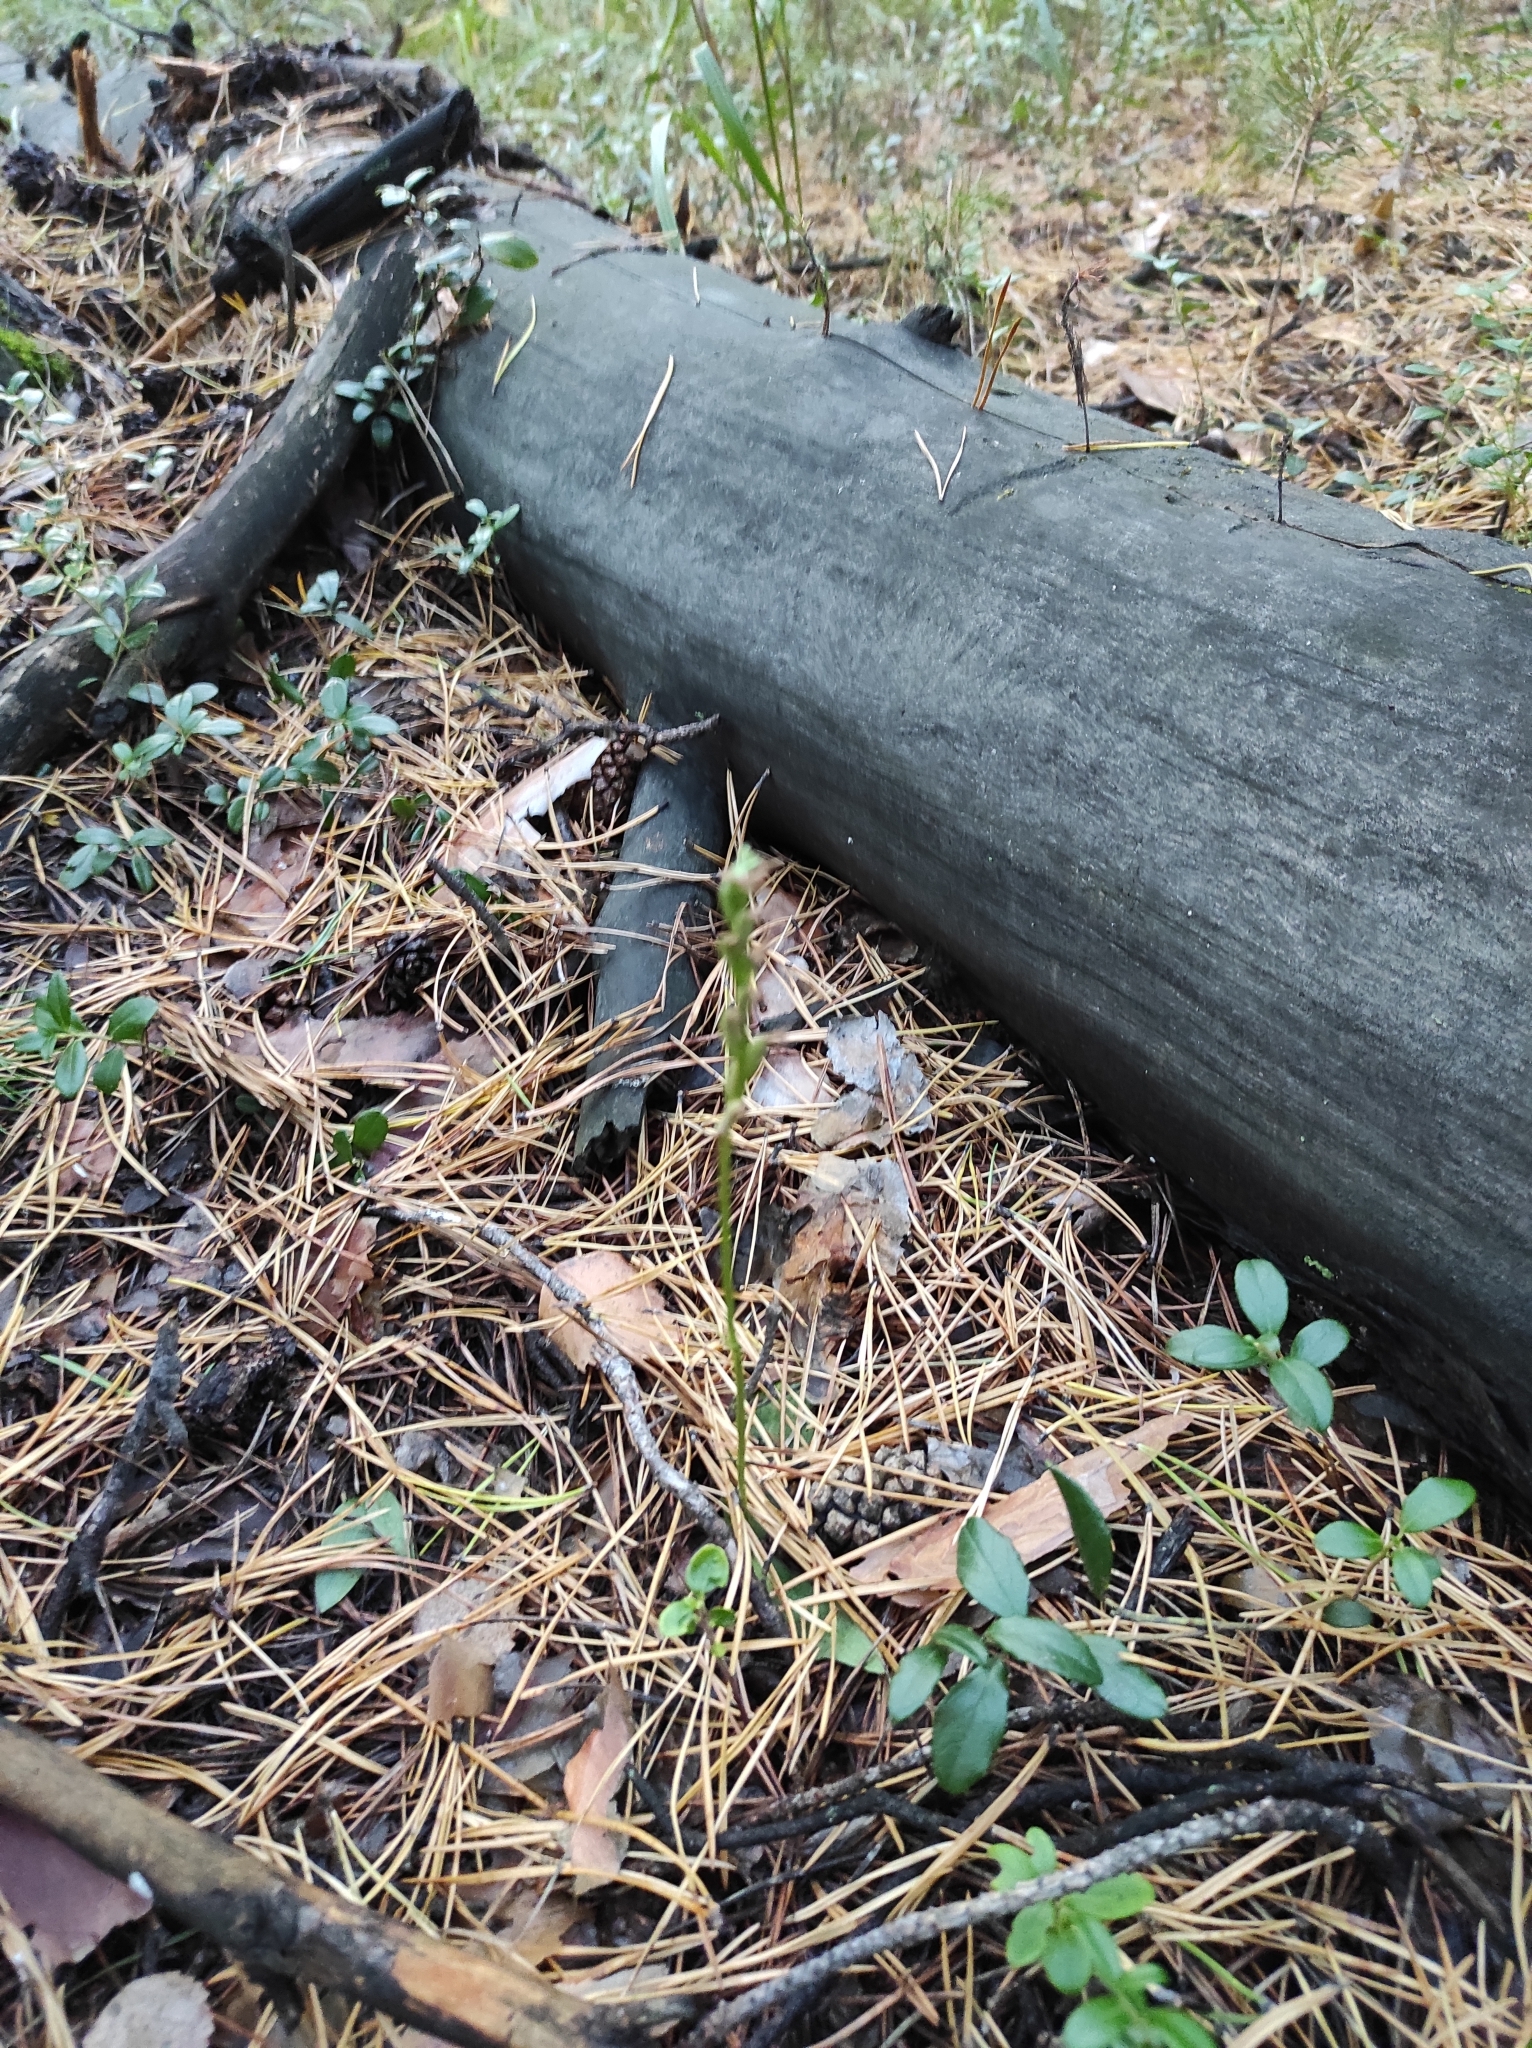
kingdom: Plantae
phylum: Tracheophyta
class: Liliopsida
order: Asparagales
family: Orchidaceae
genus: Hemipilia
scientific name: Hemipilia cucullata
